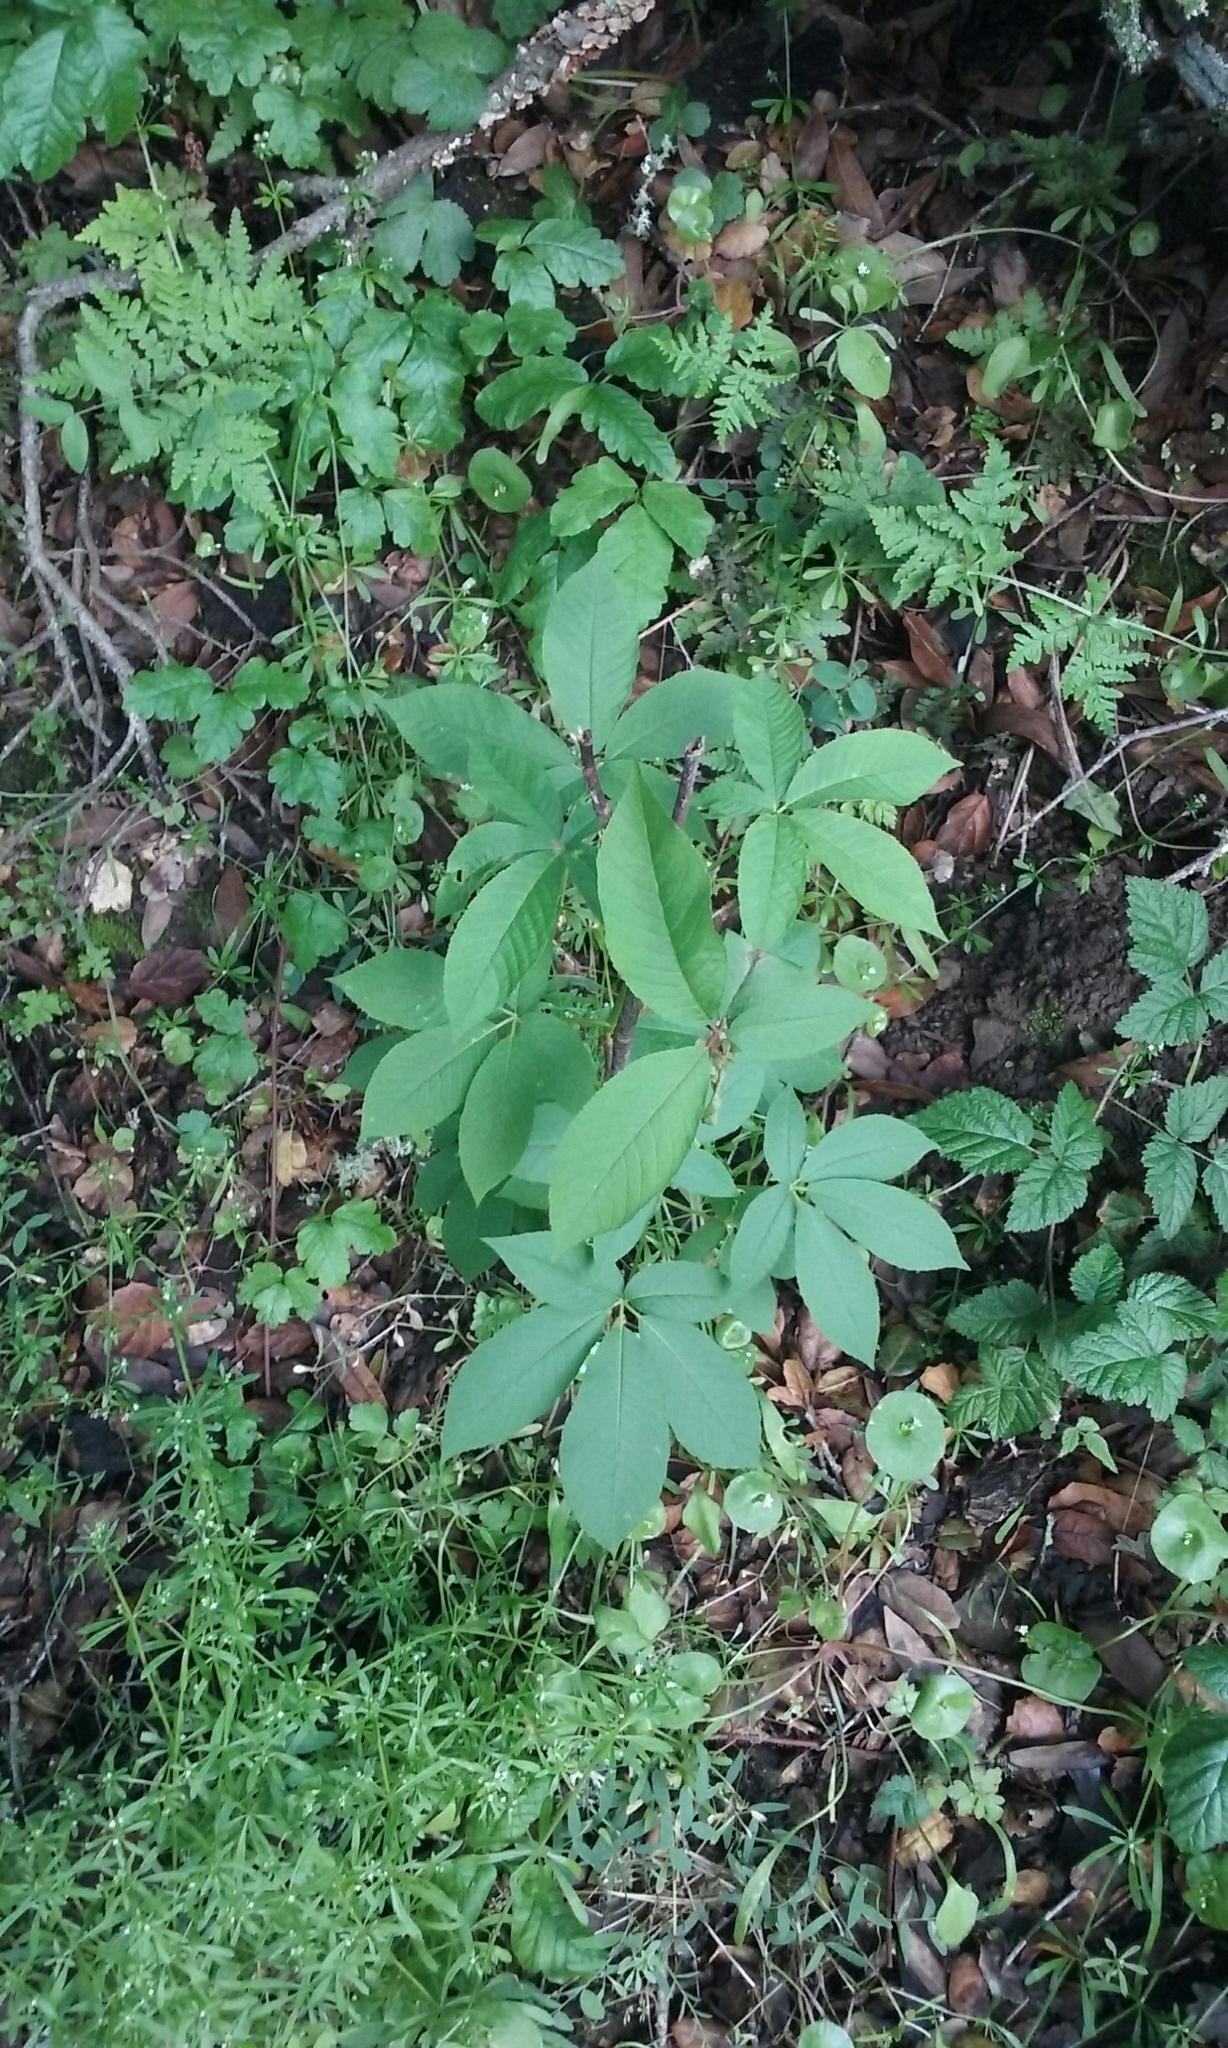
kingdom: Plantae
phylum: Tracheophyta
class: Magnoliopsida
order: Sapindales
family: Sapindaceae
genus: Aesculus
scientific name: Aesculus californica
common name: California buckeye
